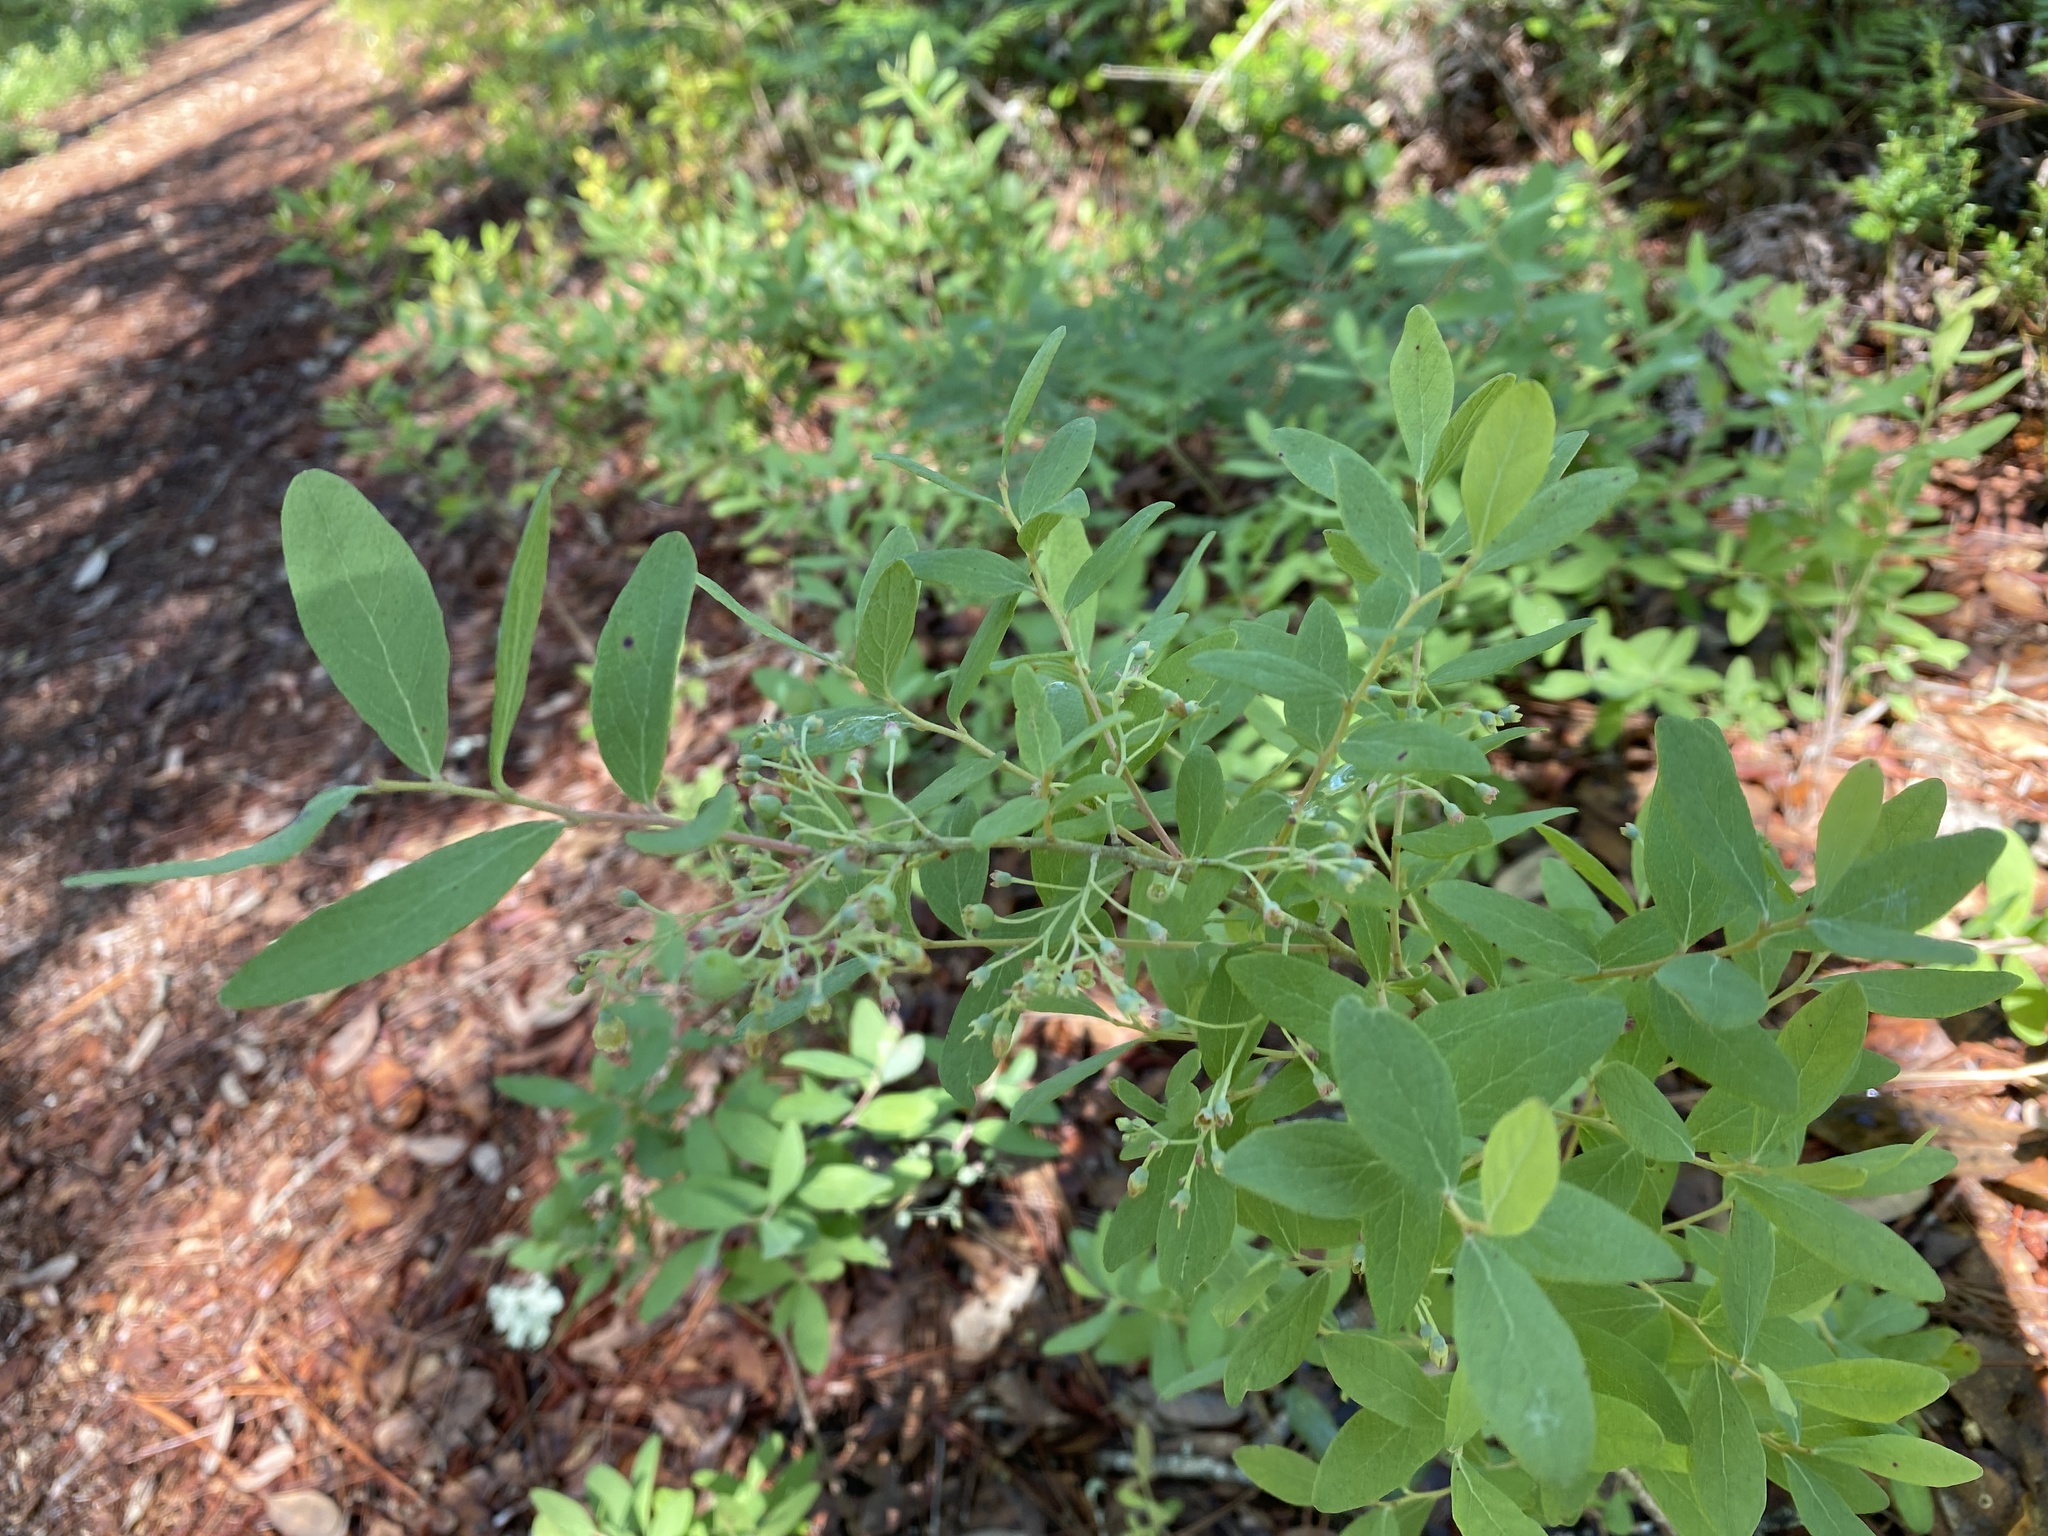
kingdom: Plantae
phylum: Tracheophyta
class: Magnoliopsida
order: Ericales
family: Ericaceae
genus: Gaylussacia
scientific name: Gaylussacia tomentosa
